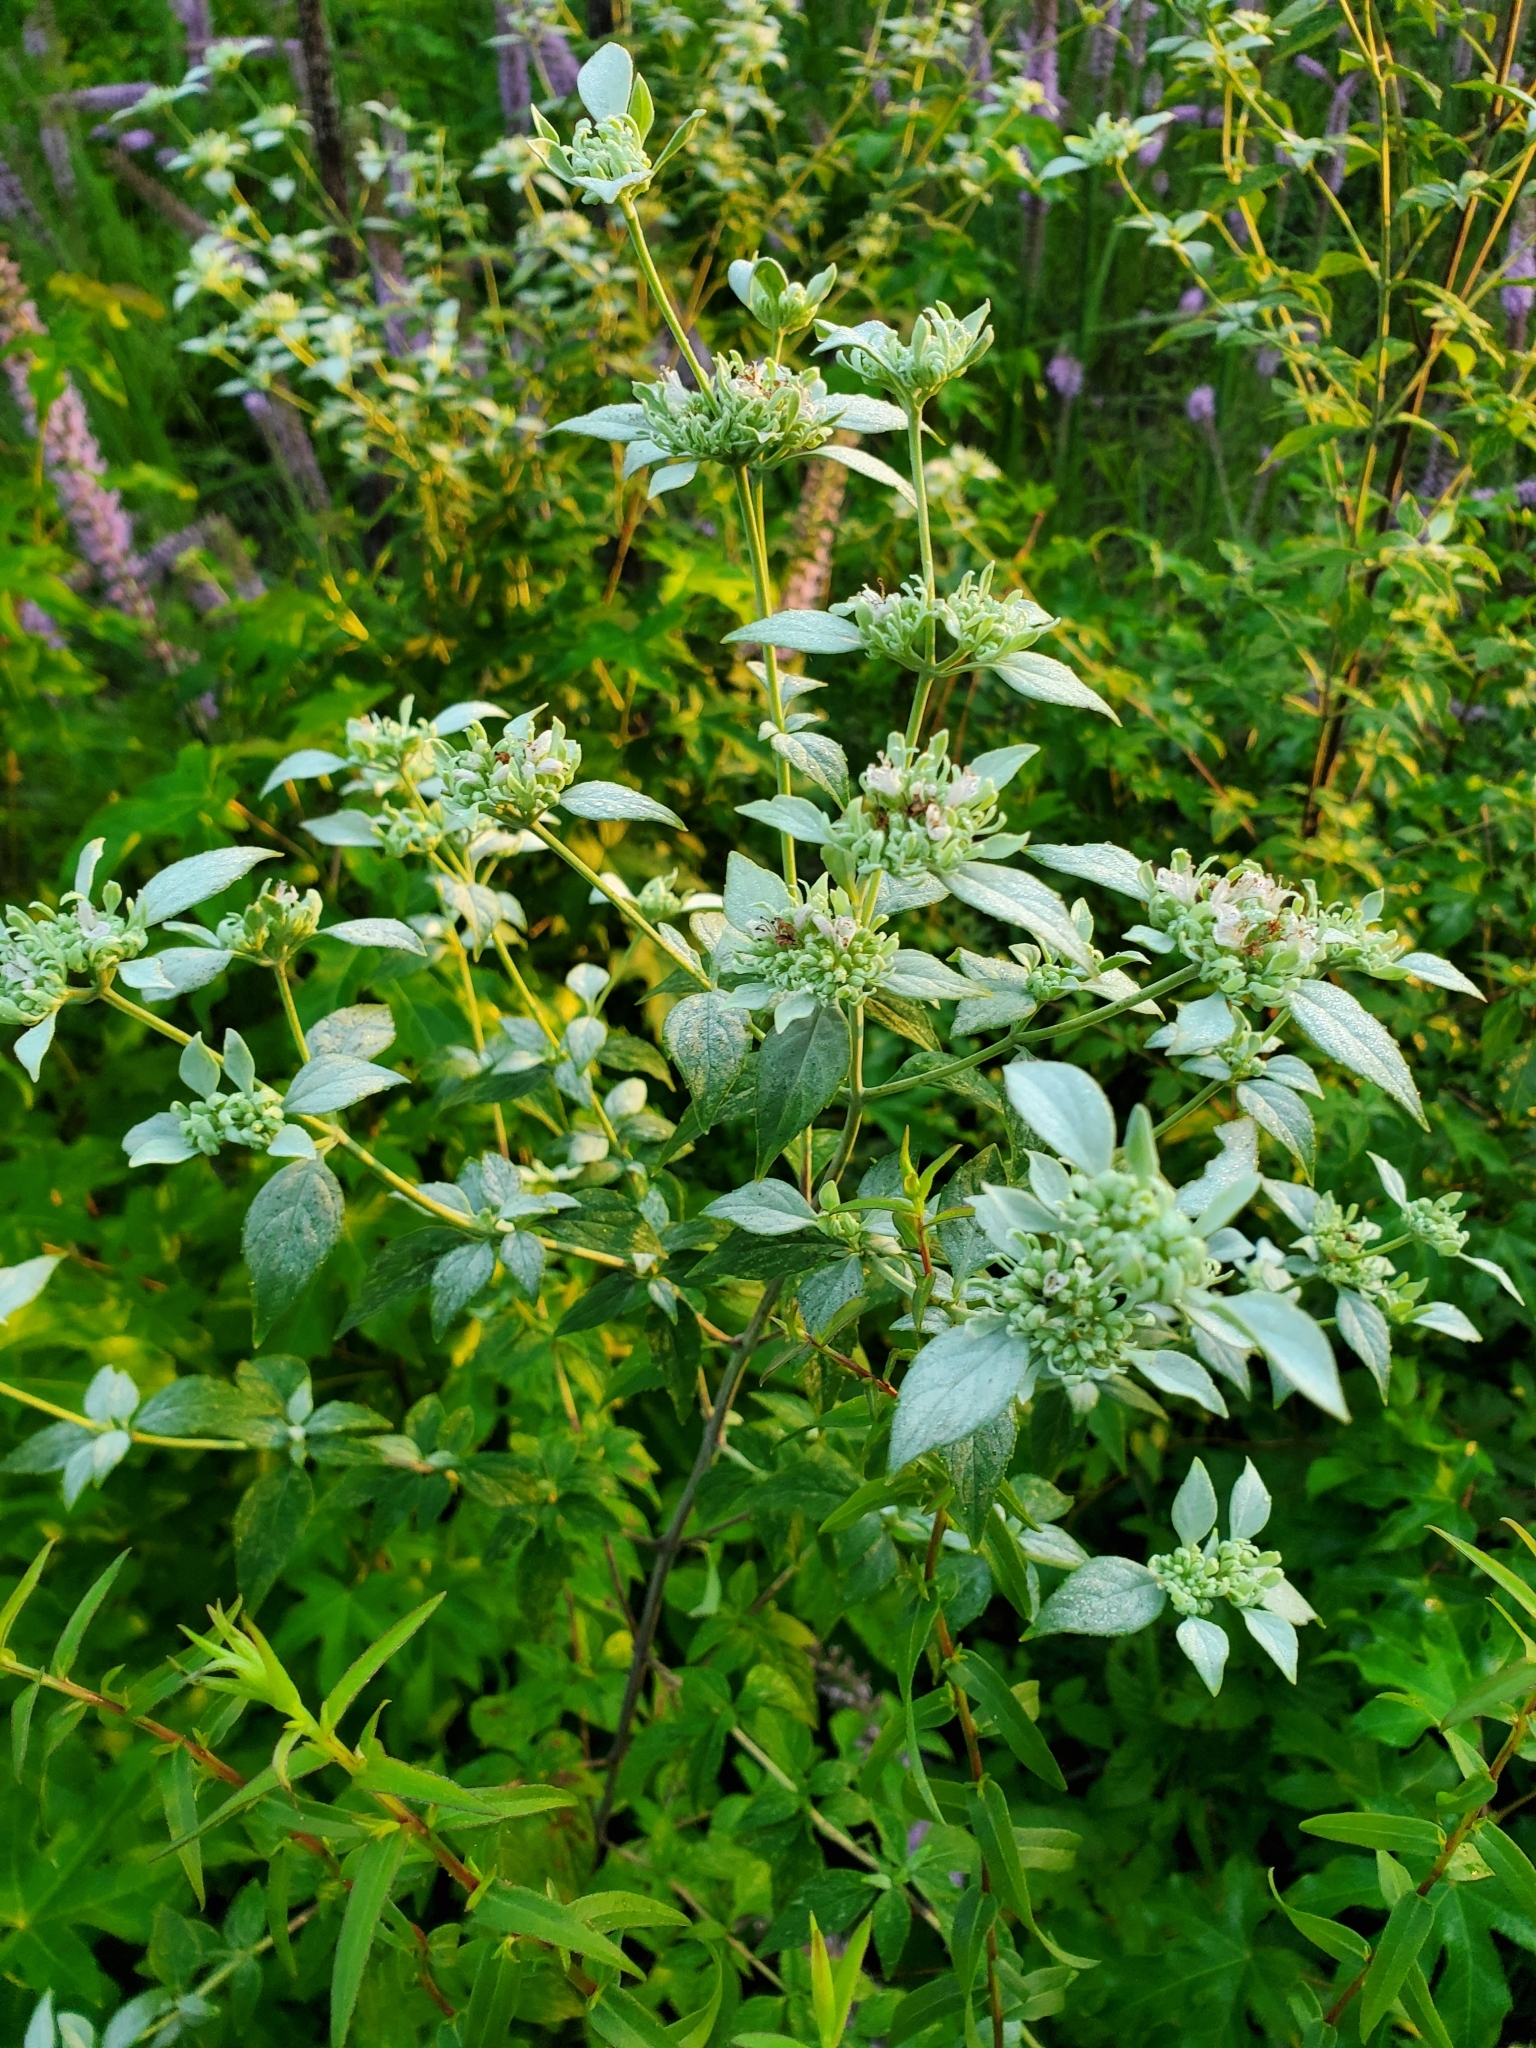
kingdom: Plantae
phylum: Tracheophyta
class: Magnoliopsida
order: Lamiales
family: Lamiaceae
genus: Pycnanthemum
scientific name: Pycnanthemum albescens
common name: White-leaf mountain-mint
